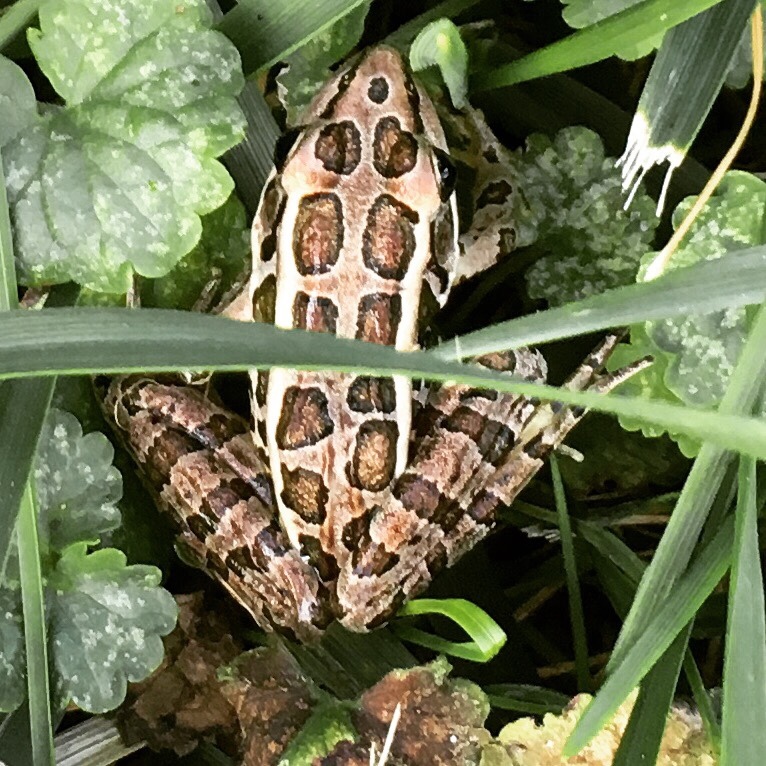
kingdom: Animalia
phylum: Chordata
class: Amphibia
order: Anura
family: Ranidae
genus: Lithobates
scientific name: Lithobates palustris
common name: Pickerel frog
